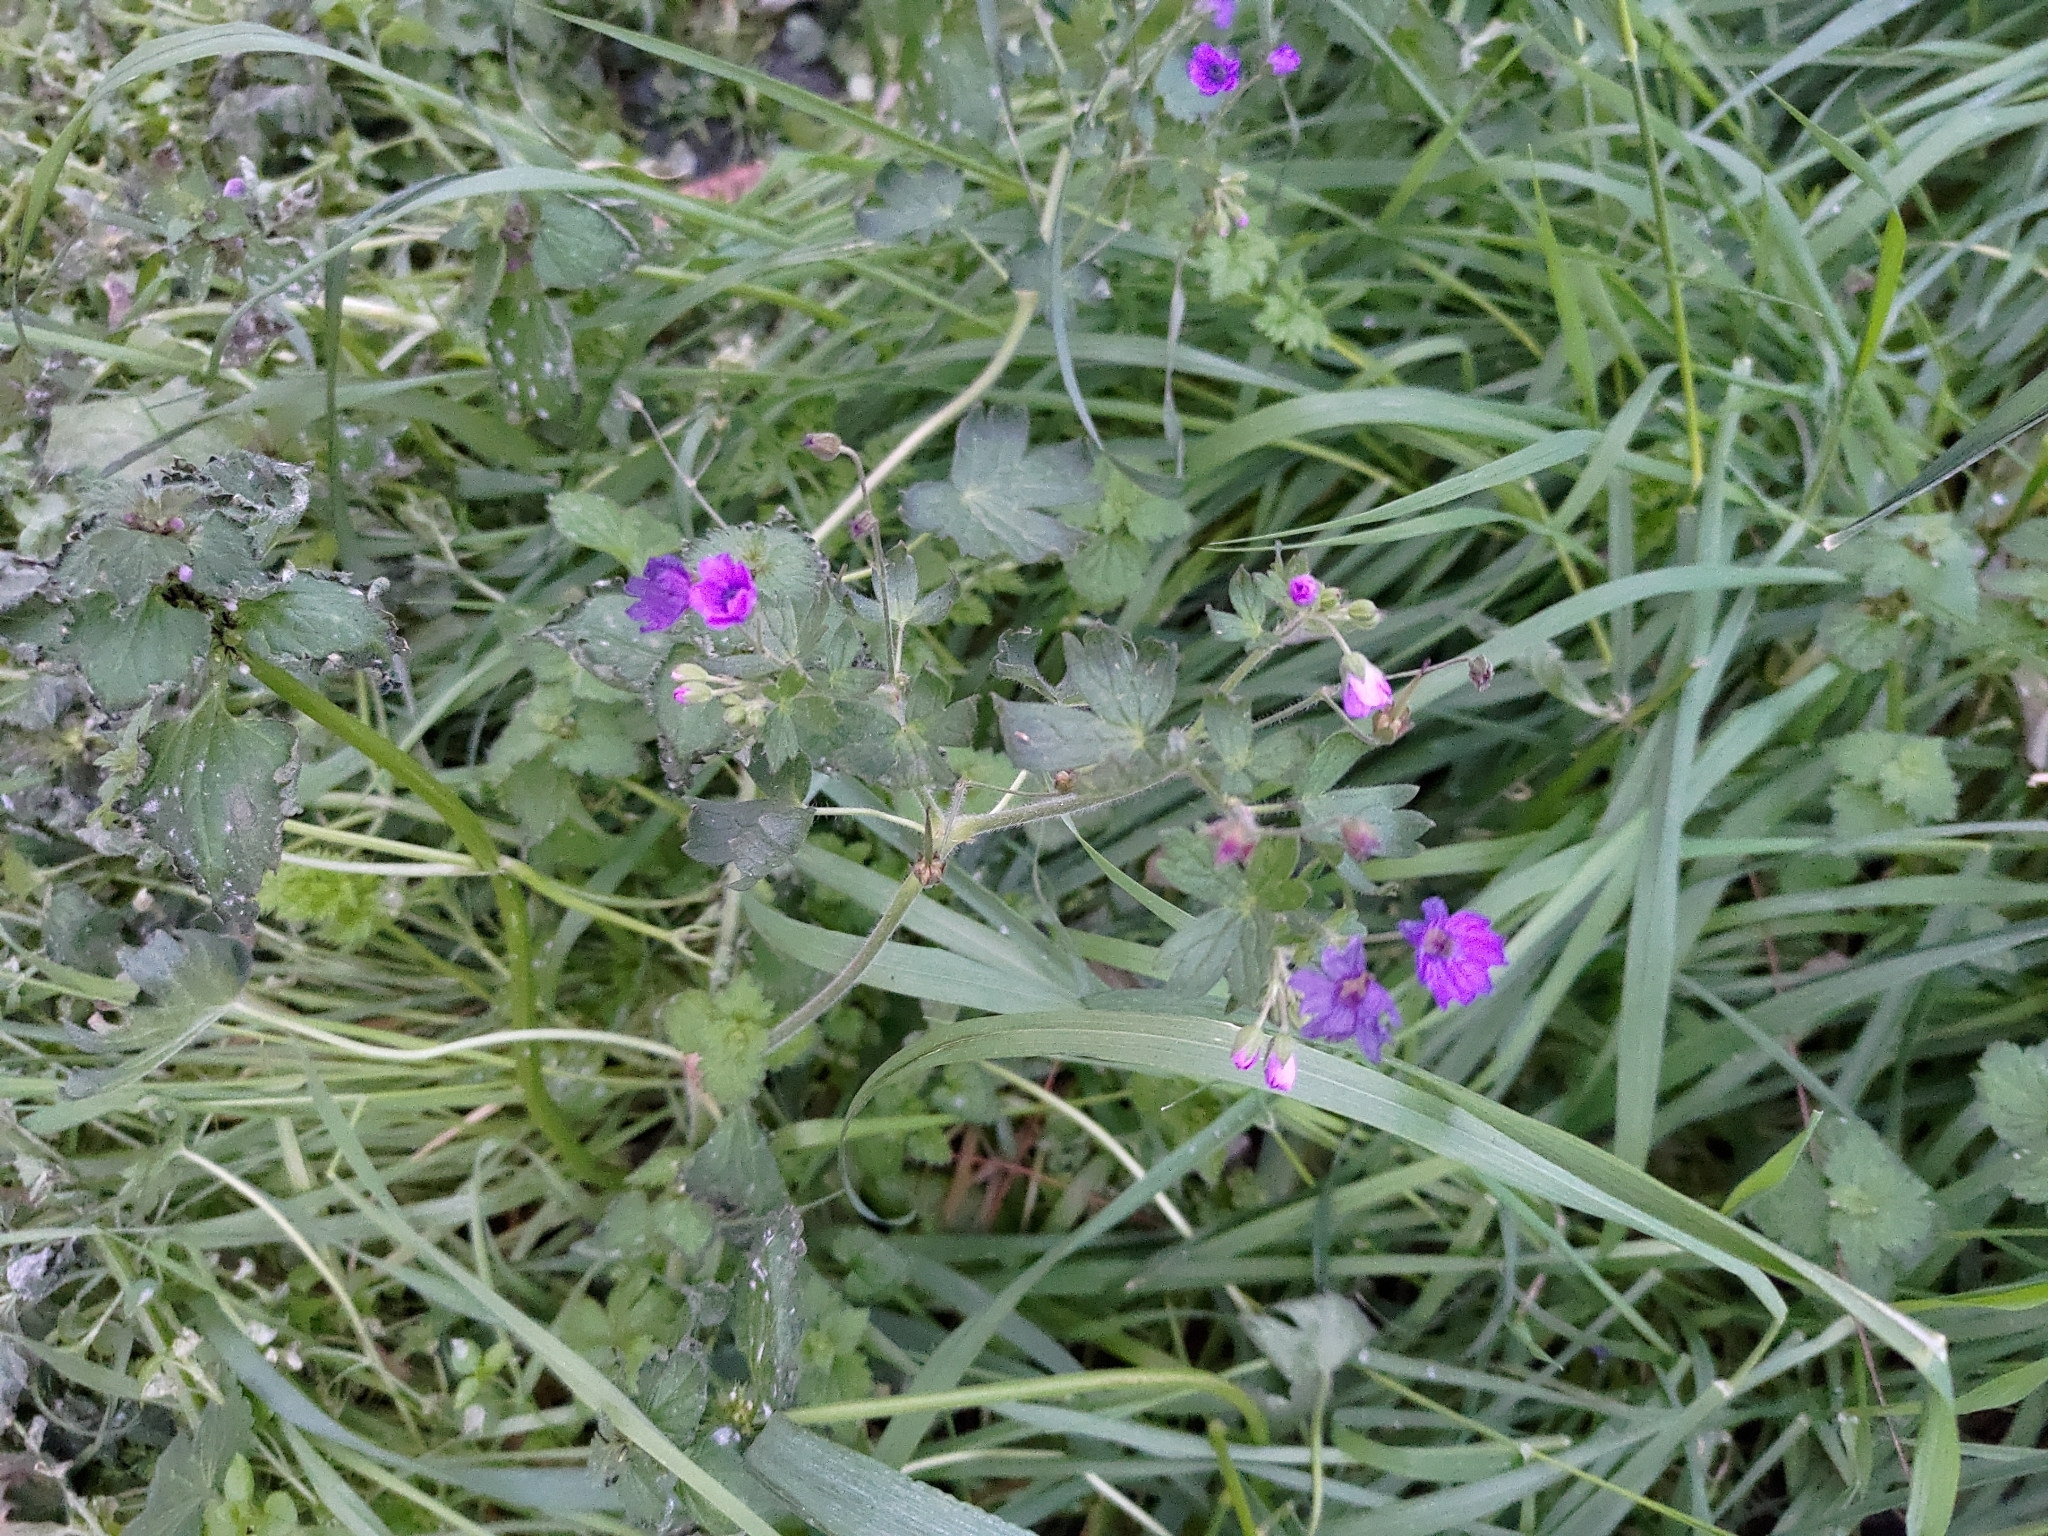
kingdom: Plantae
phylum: Tracheophyta
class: Magnoliopsida
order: Geraniales
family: Geraniaceae
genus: Geranium
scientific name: Geranium pyrenaicum
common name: Hedgerow crane's-bill
